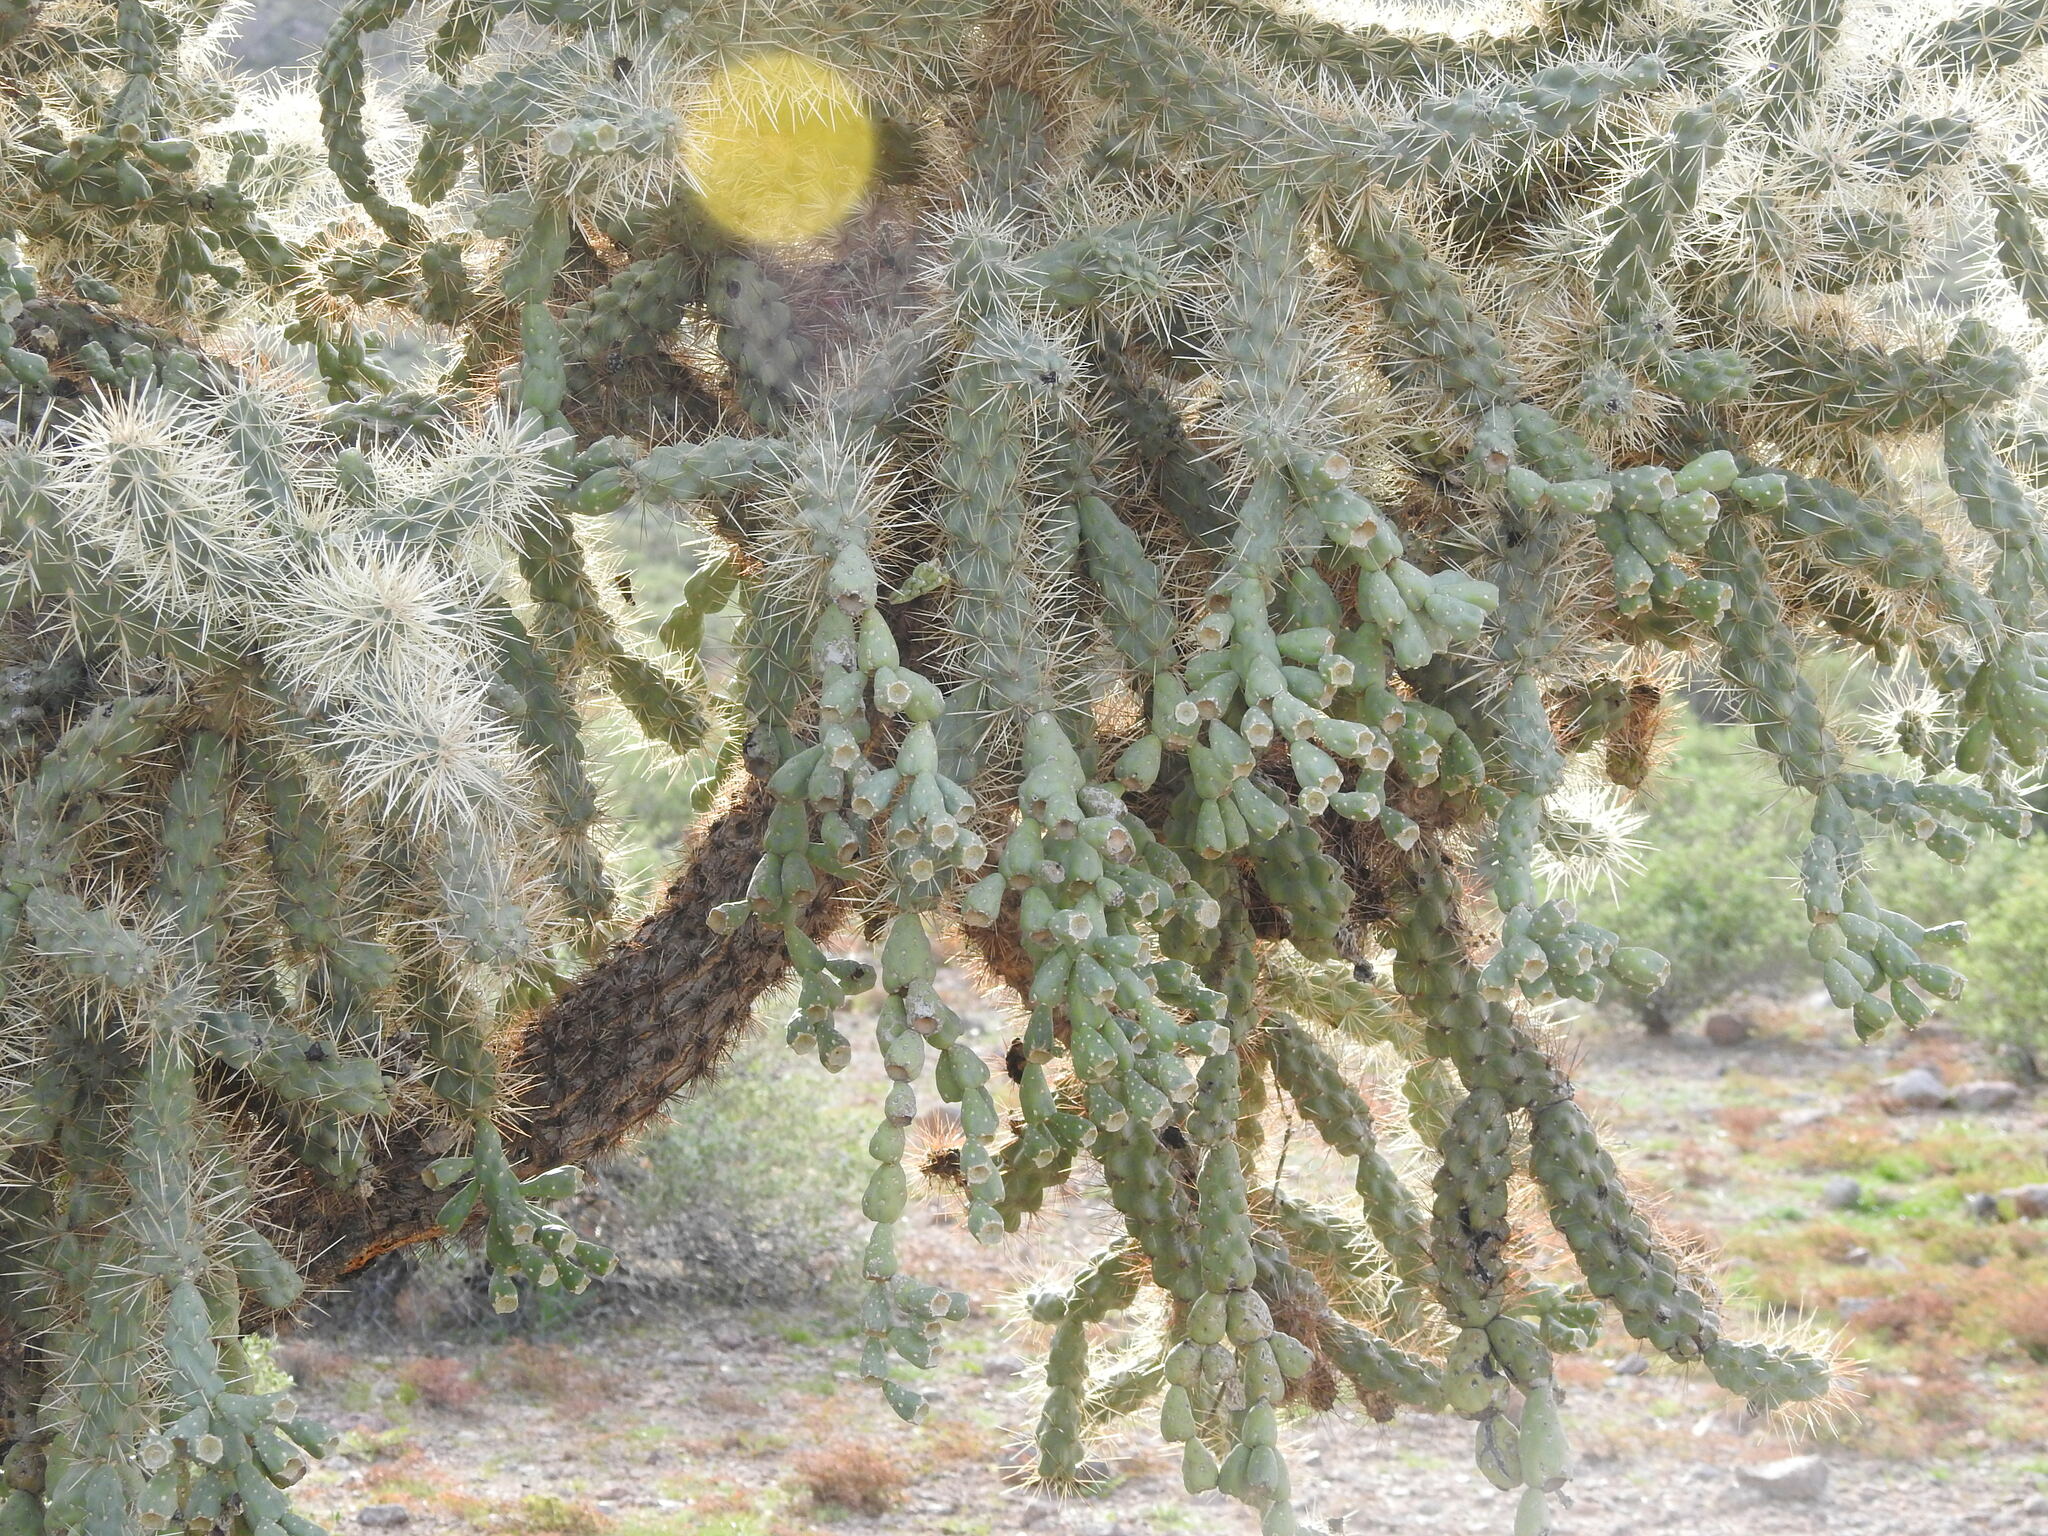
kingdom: Plantae
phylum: Tracheophyta
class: Magnoliopsida
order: Caryophyllales
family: Cactaceae
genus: Cylindropuntia
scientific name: Cylindropuntia fulgida
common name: Jumping cholla
